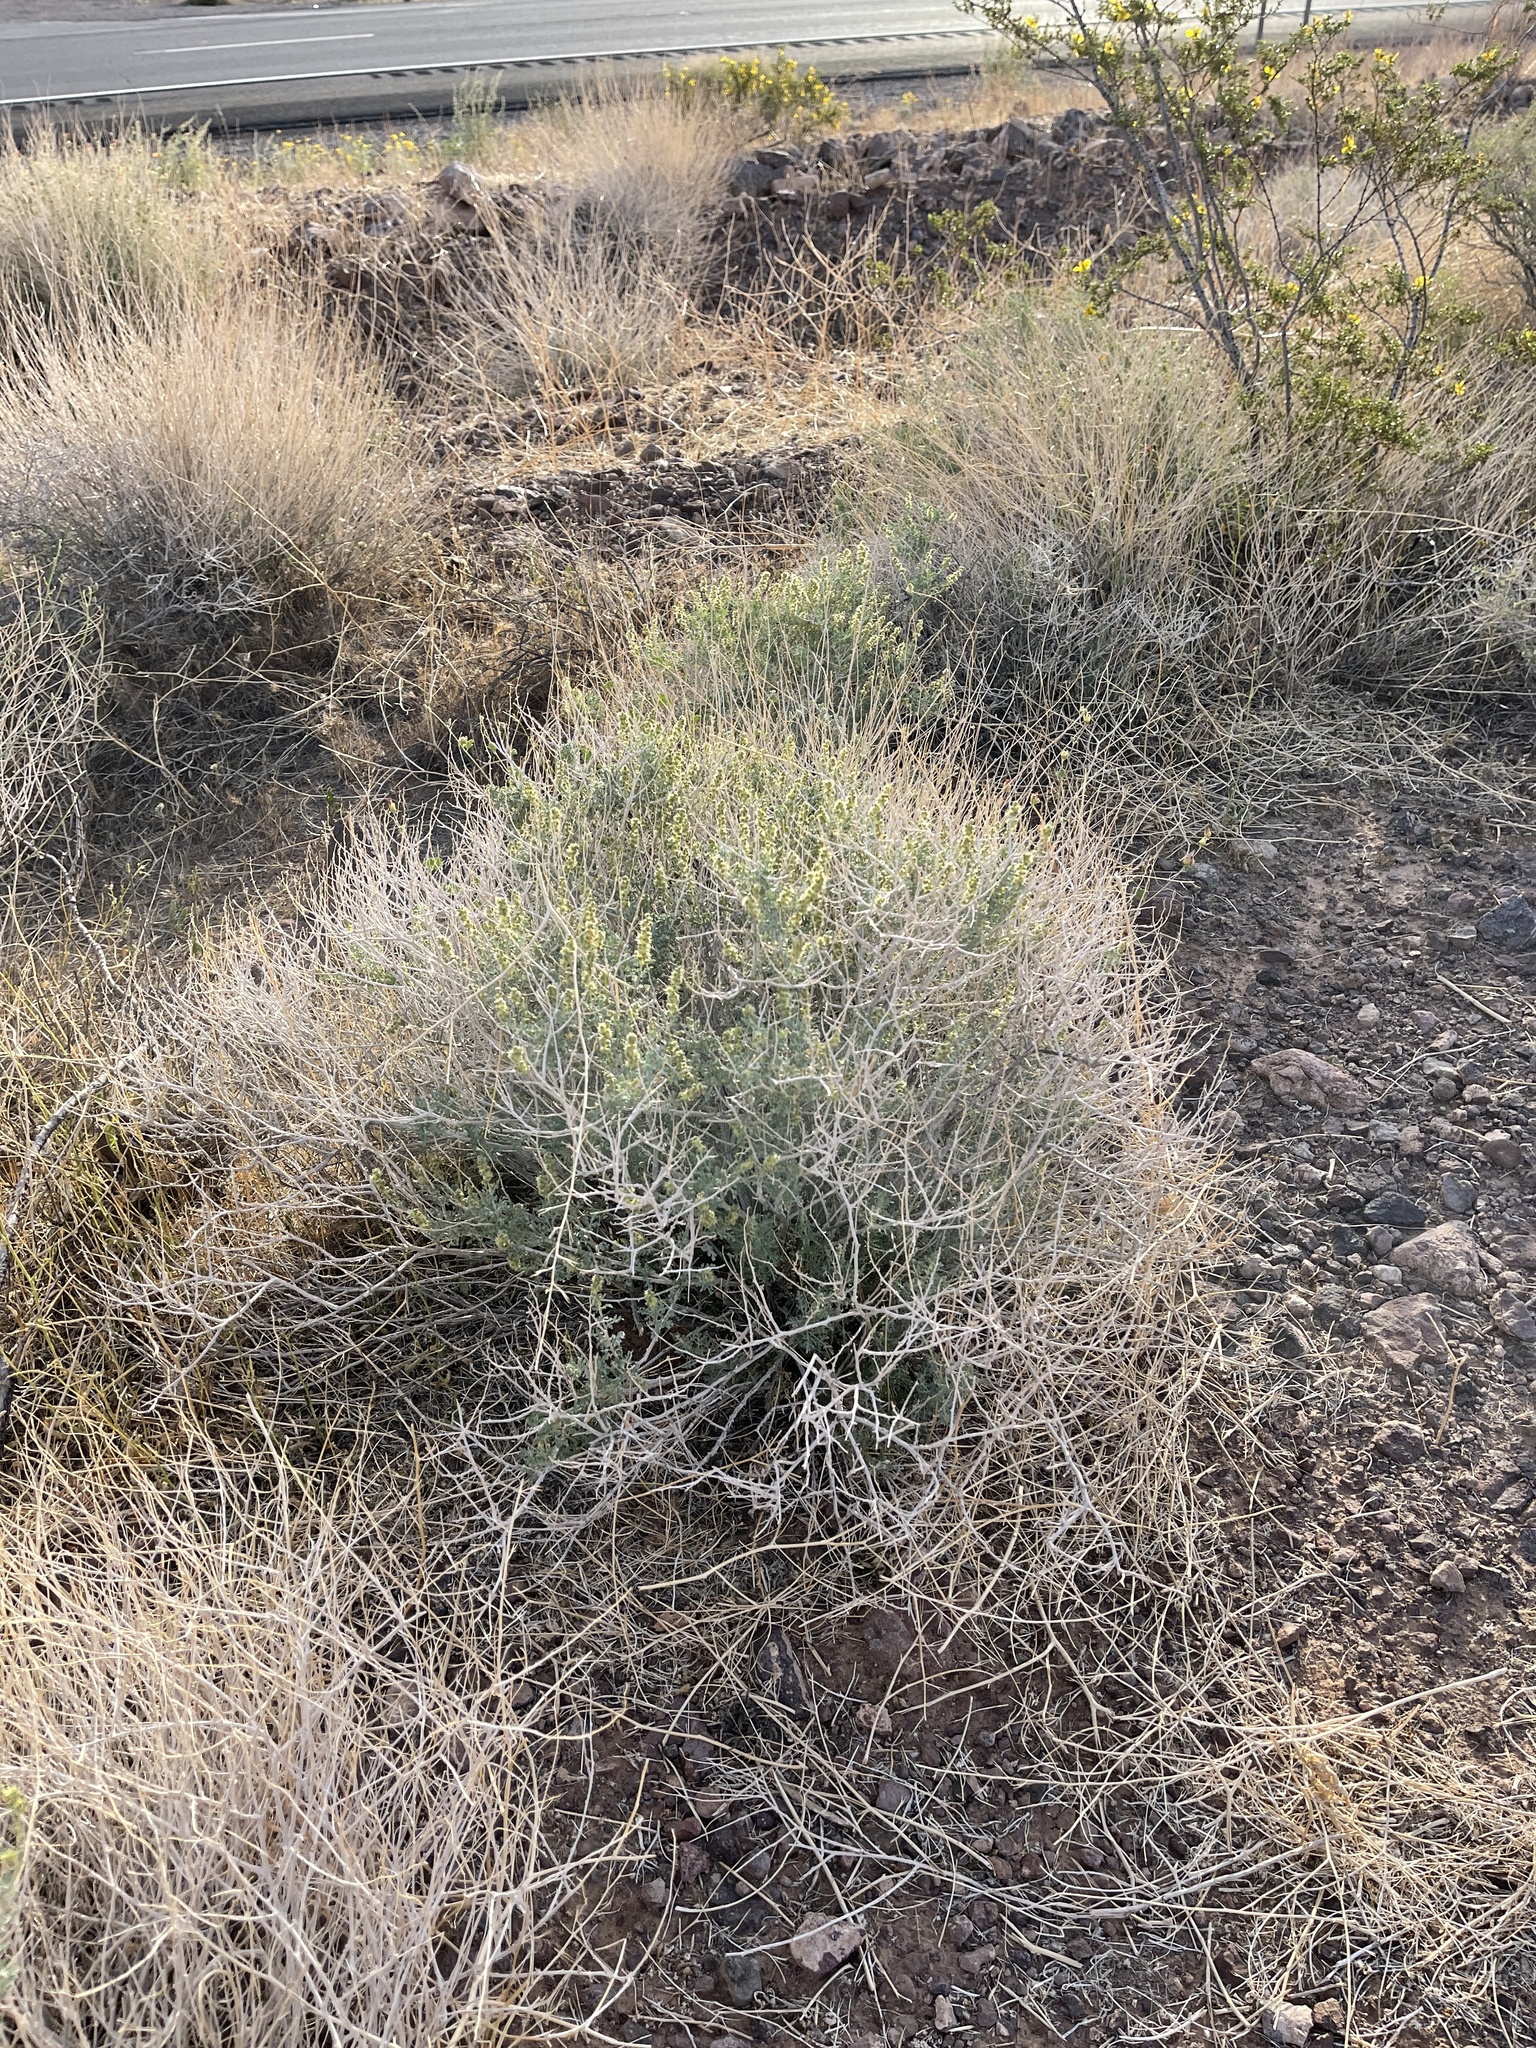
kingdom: Plantae
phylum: Tracheophyta
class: Magnoliopsida
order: Asterales
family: Asteraceae
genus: Ambrosia
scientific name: Ambrosia dumosa
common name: Bur-sage
